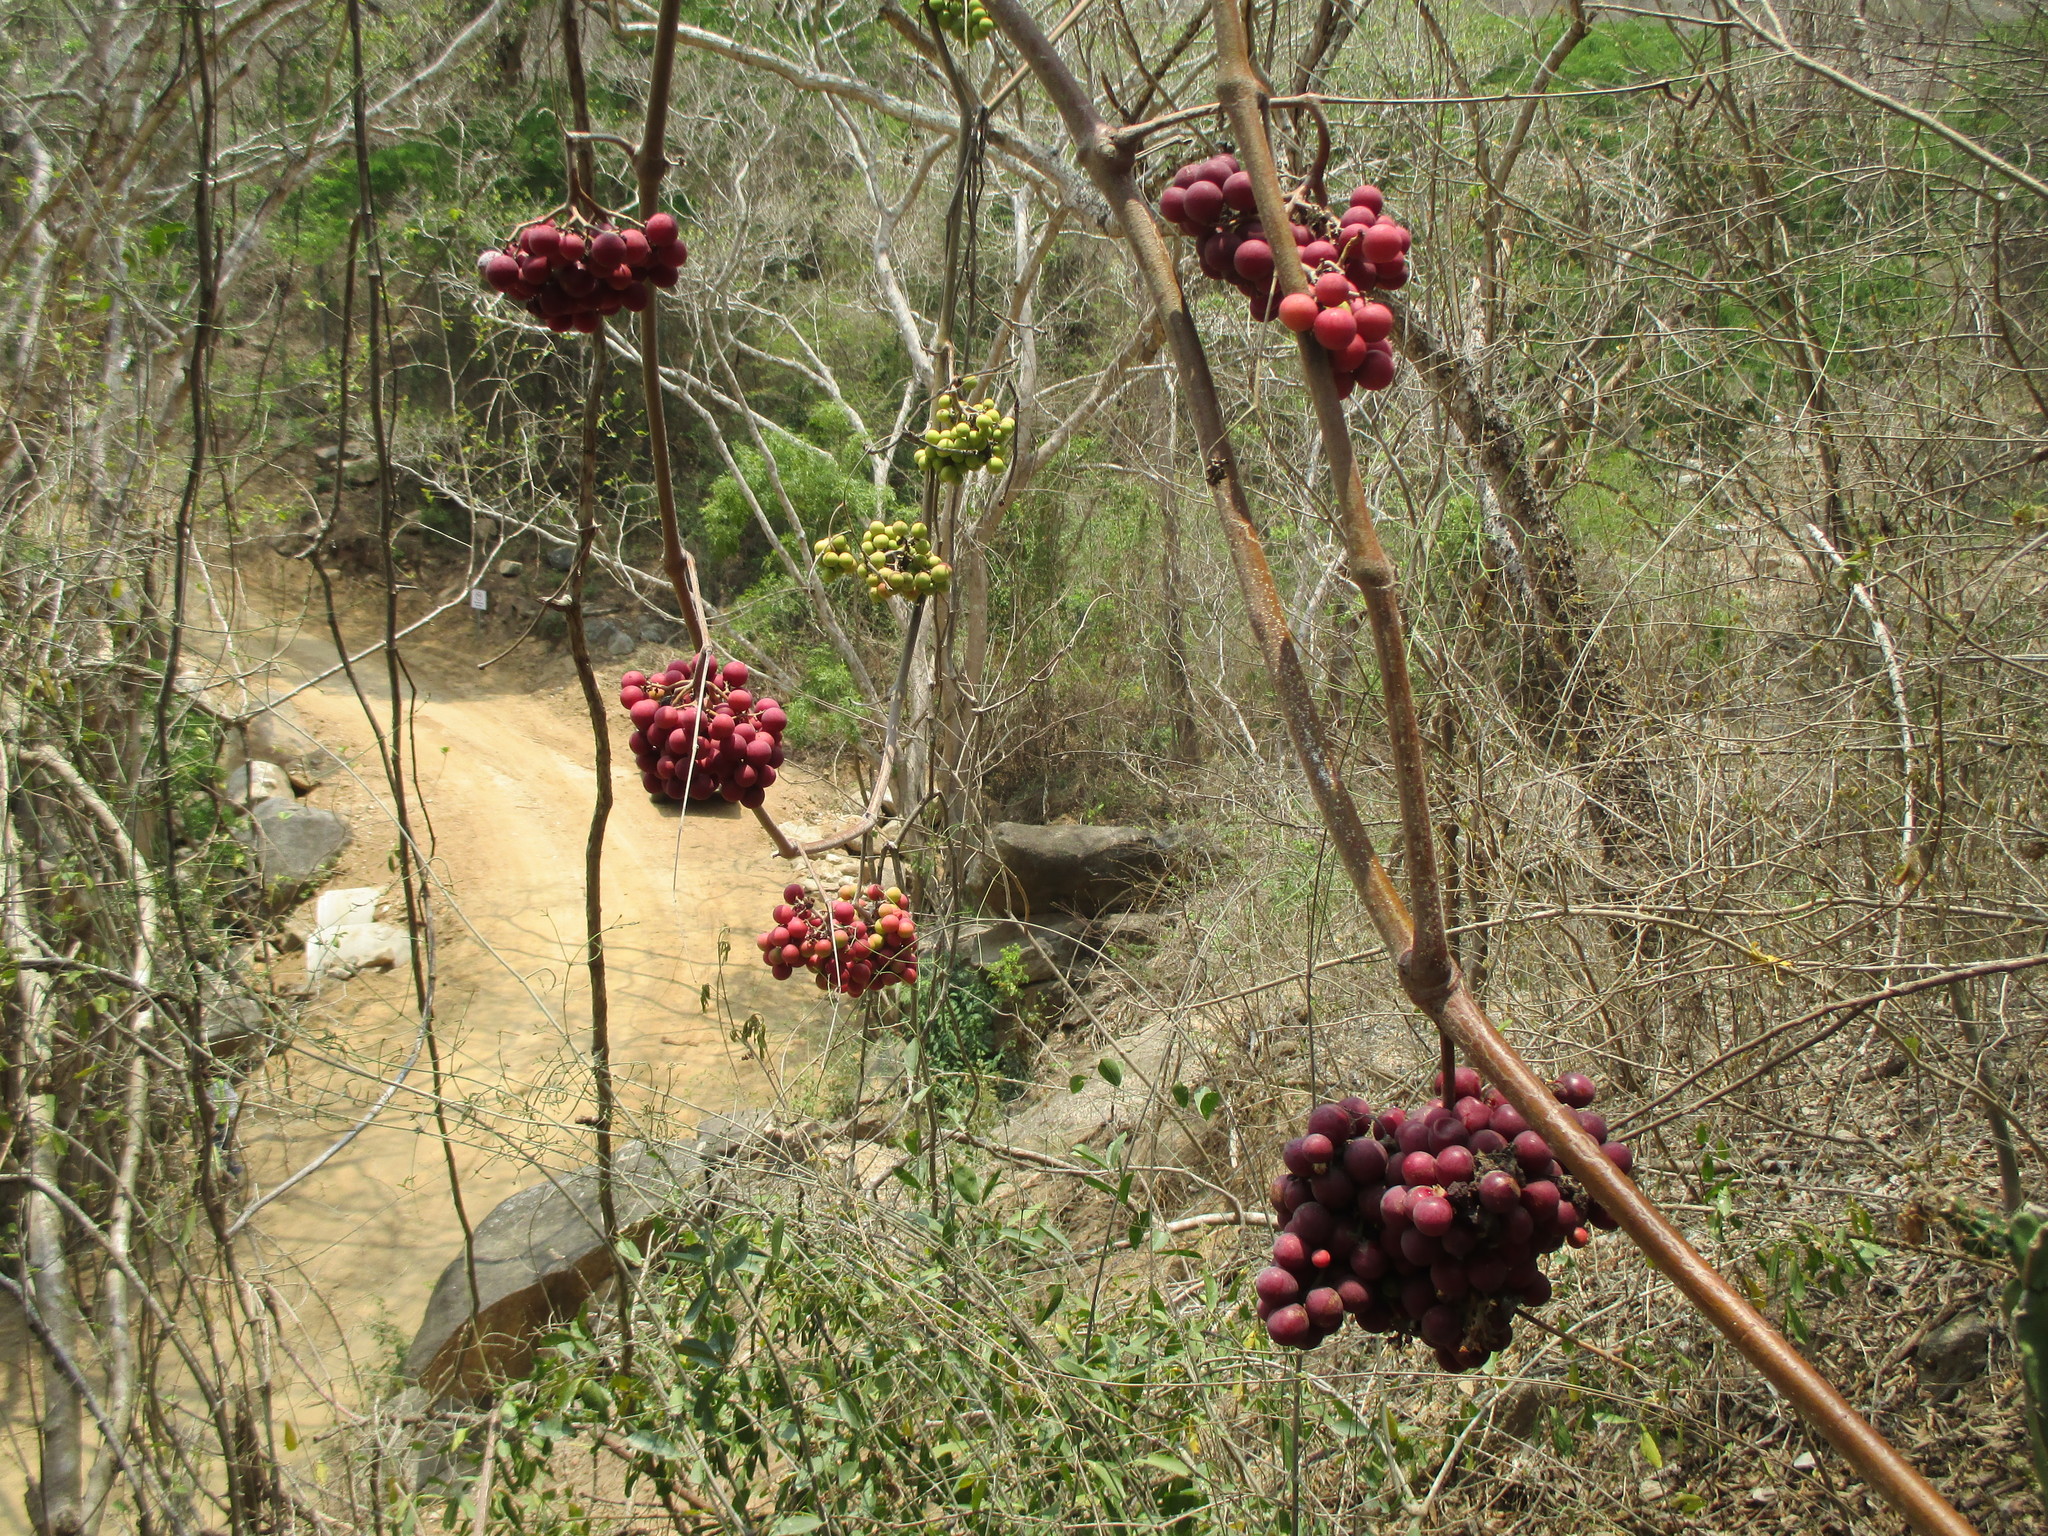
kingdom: Plantae
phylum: Tracheophyta
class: Magnoliopsida
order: Vitales
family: Vitaceae
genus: Ampelocissus
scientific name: Ampelocissus acapulcensis
